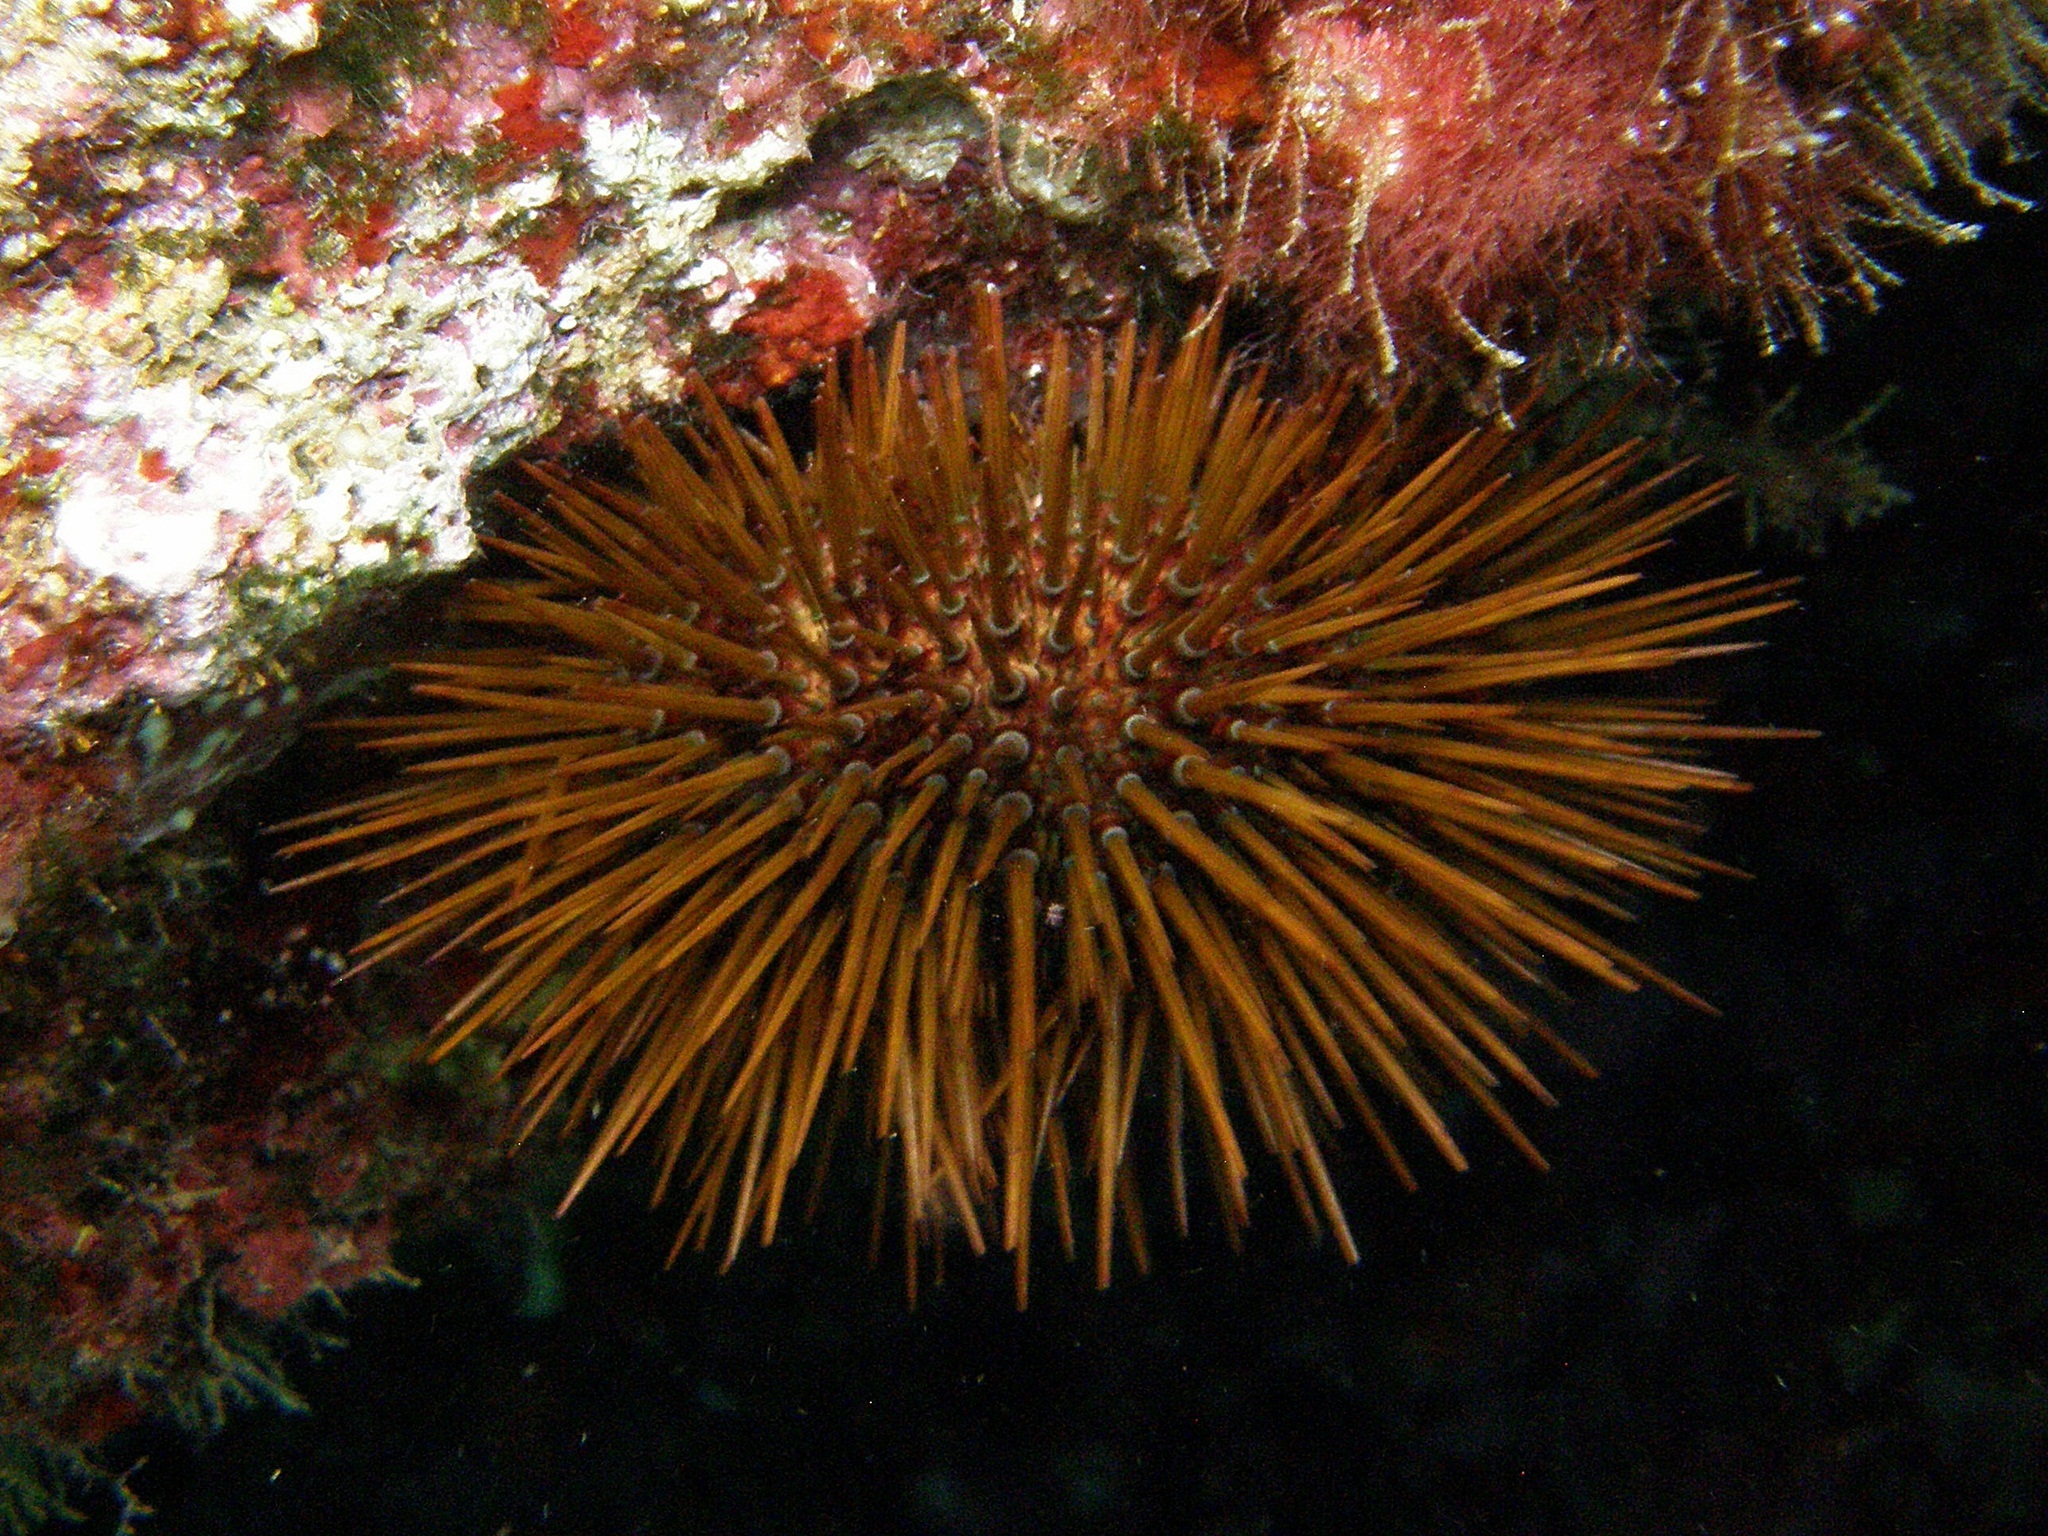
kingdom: Animalia
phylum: Echinodermata
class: Echinoidea
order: Camarodonta
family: Parechinidae
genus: Paracentrotus
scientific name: Paracentrotus lividus
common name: Purple sea urchin
